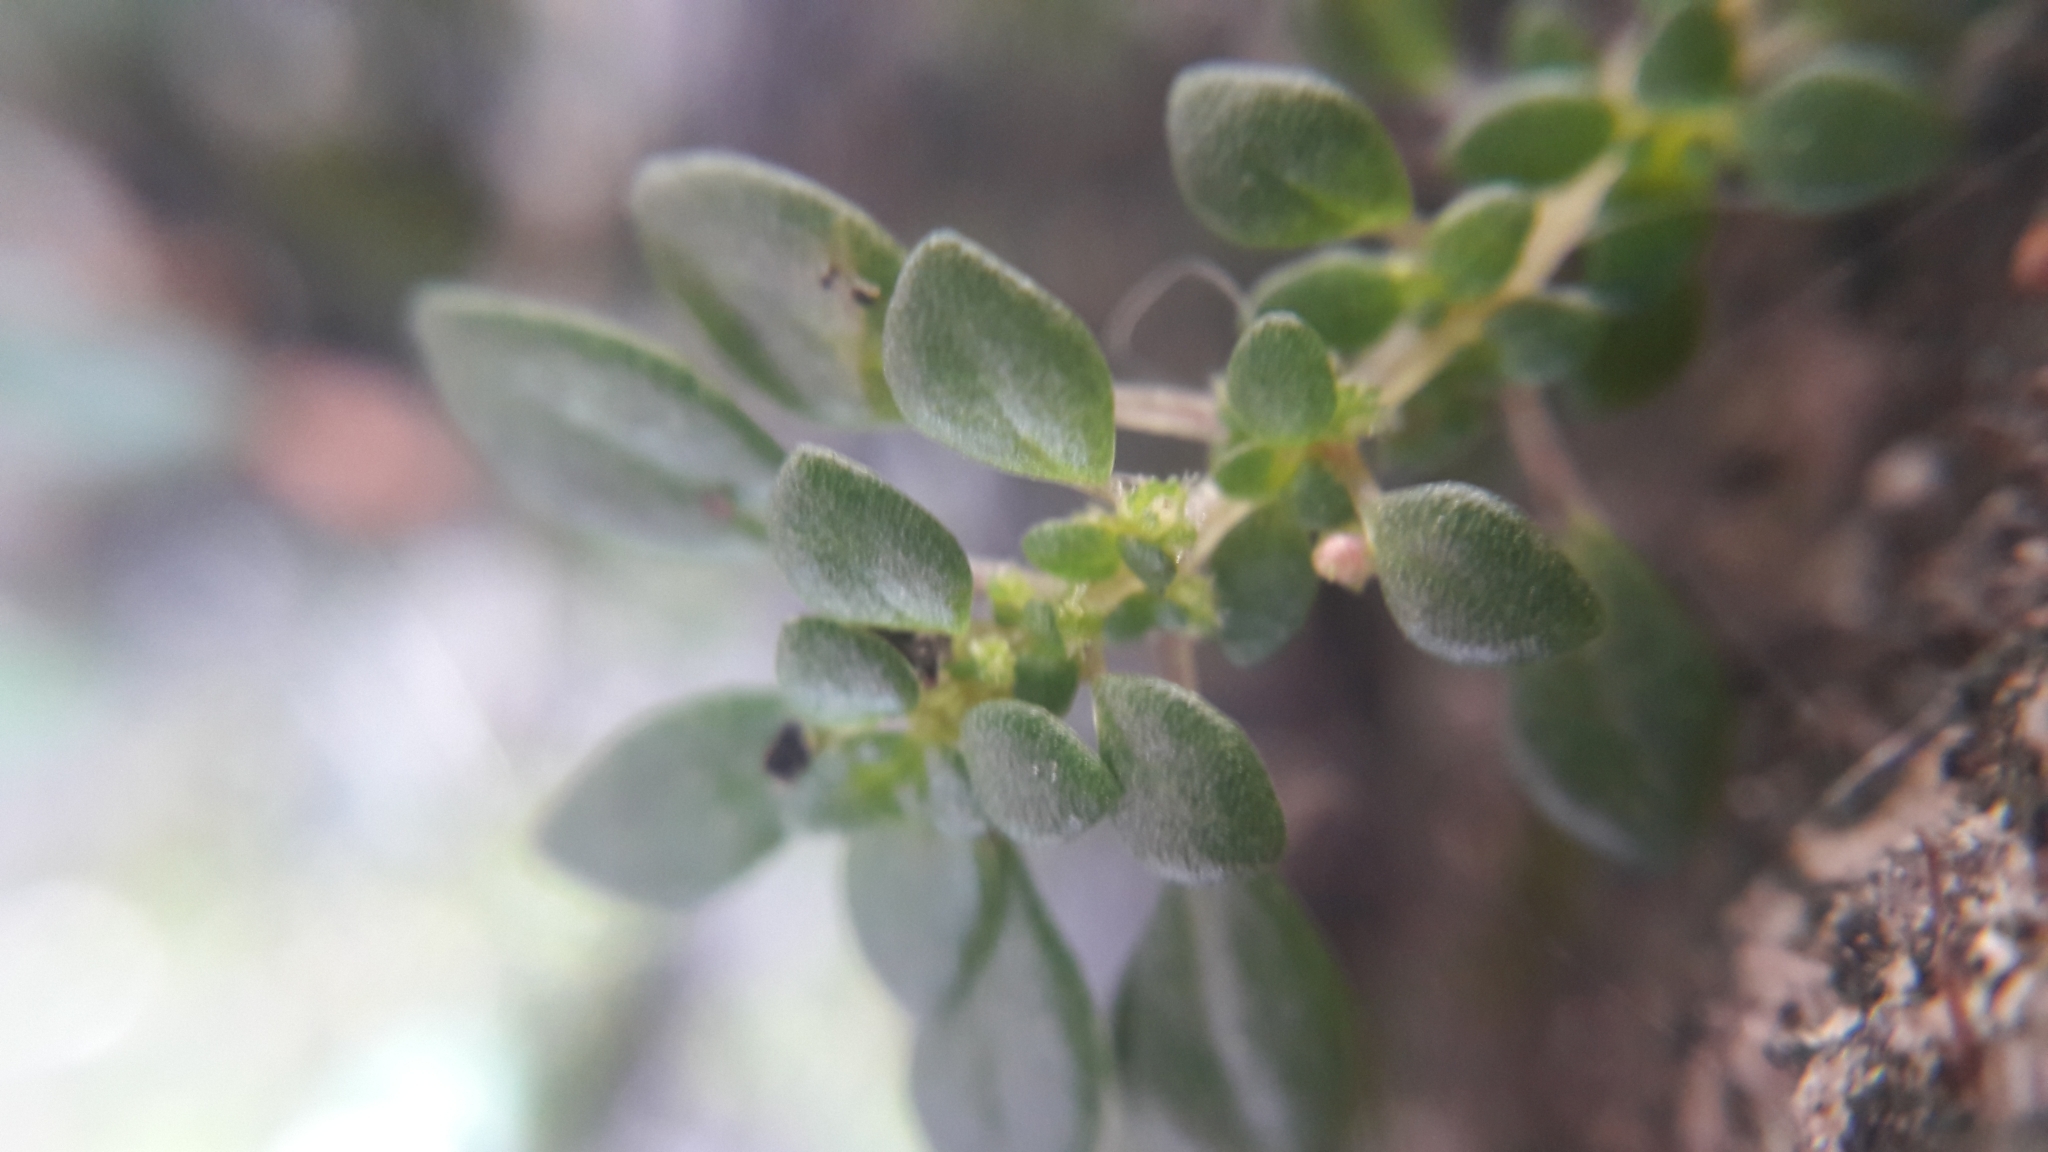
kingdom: Plantae
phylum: Tracheophyta
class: Magnoliopsida
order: Rosales
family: Urticaceae
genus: Pilea
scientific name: Pilea microphylla
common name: Artillery-plant
